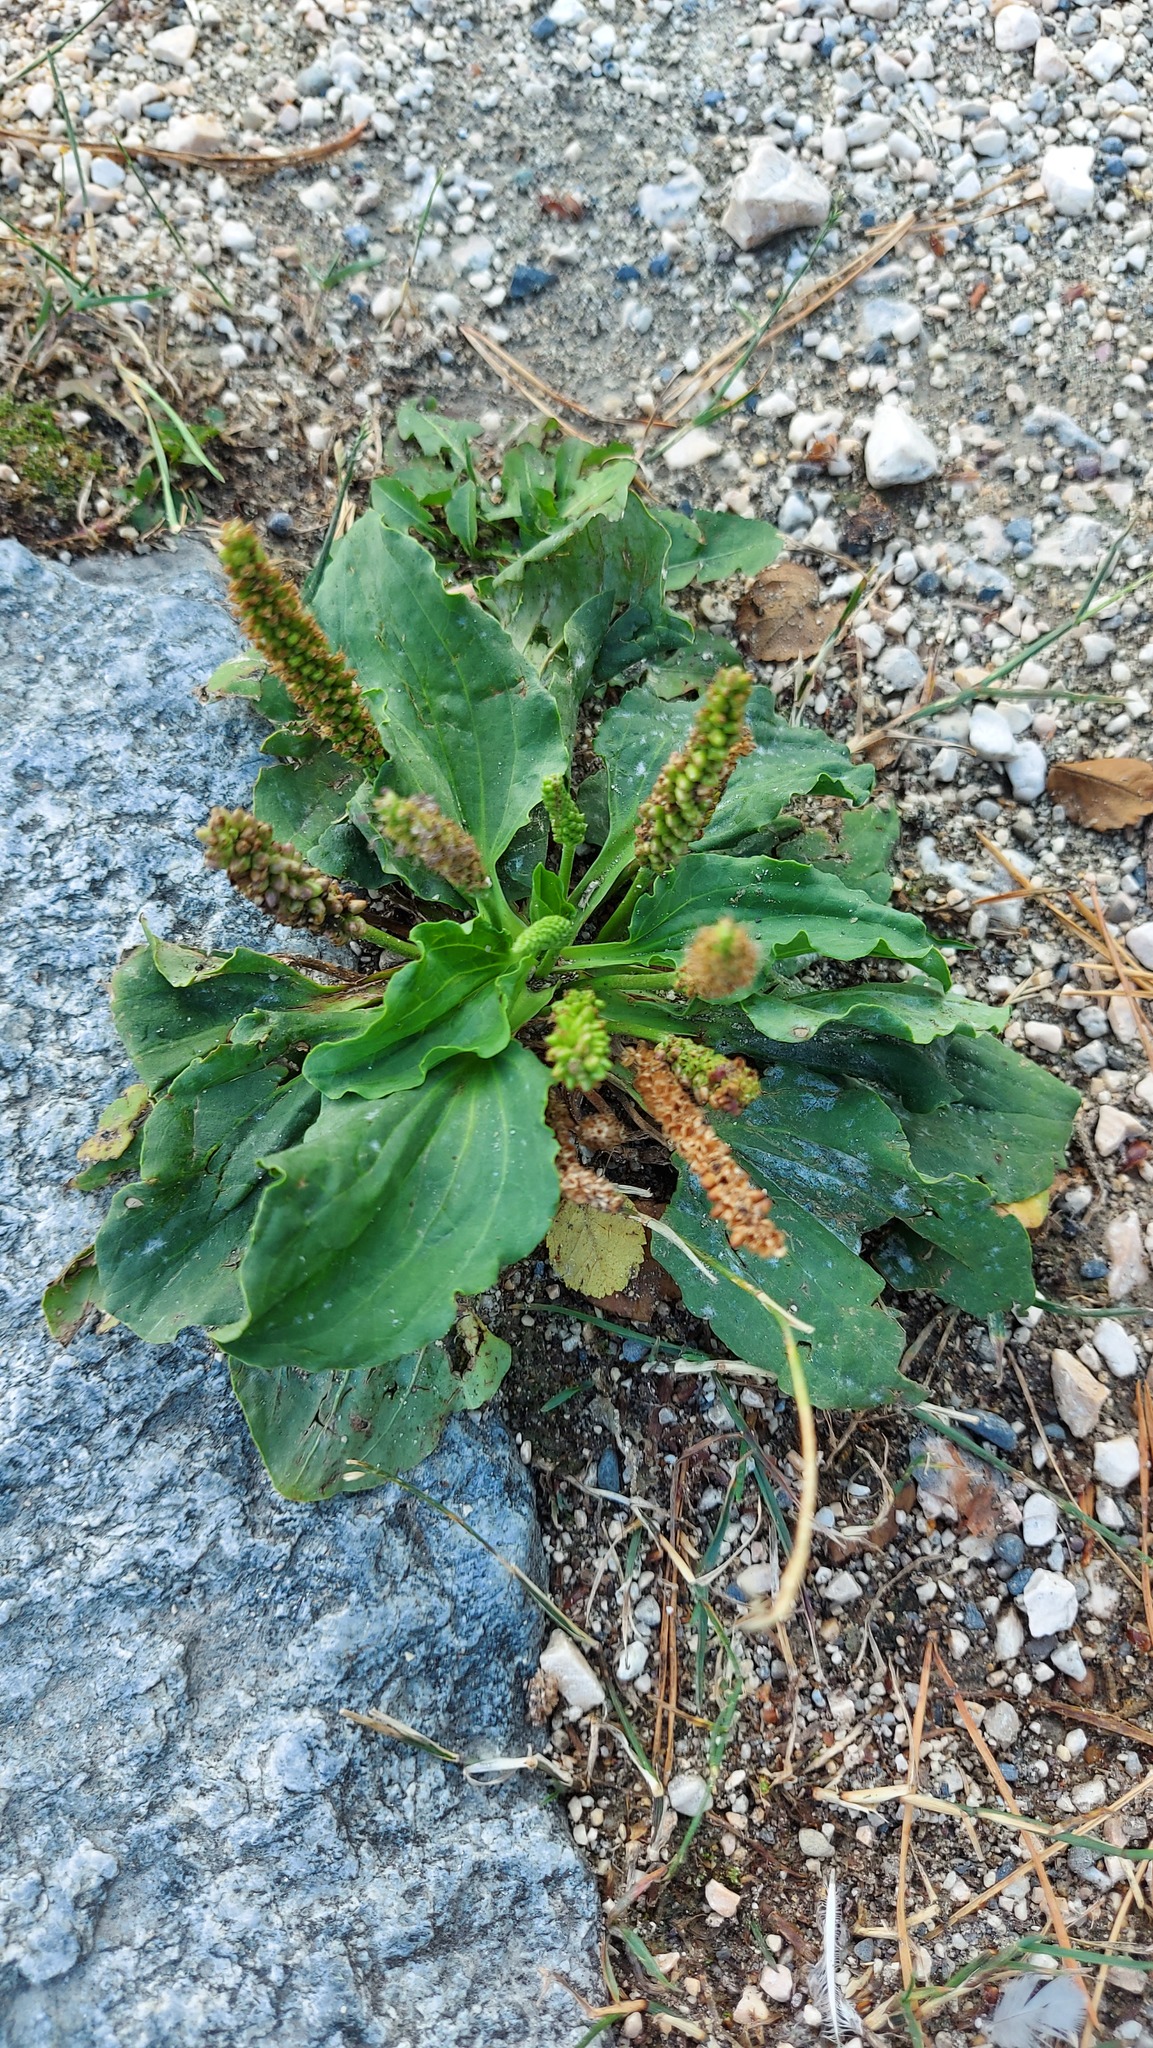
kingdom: Plantae
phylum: Tracheophyta
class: Magnoliopsida
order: Lamiales
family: Plantaginaceae
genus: Plantago
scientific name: Plantago major
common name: Common plantain
